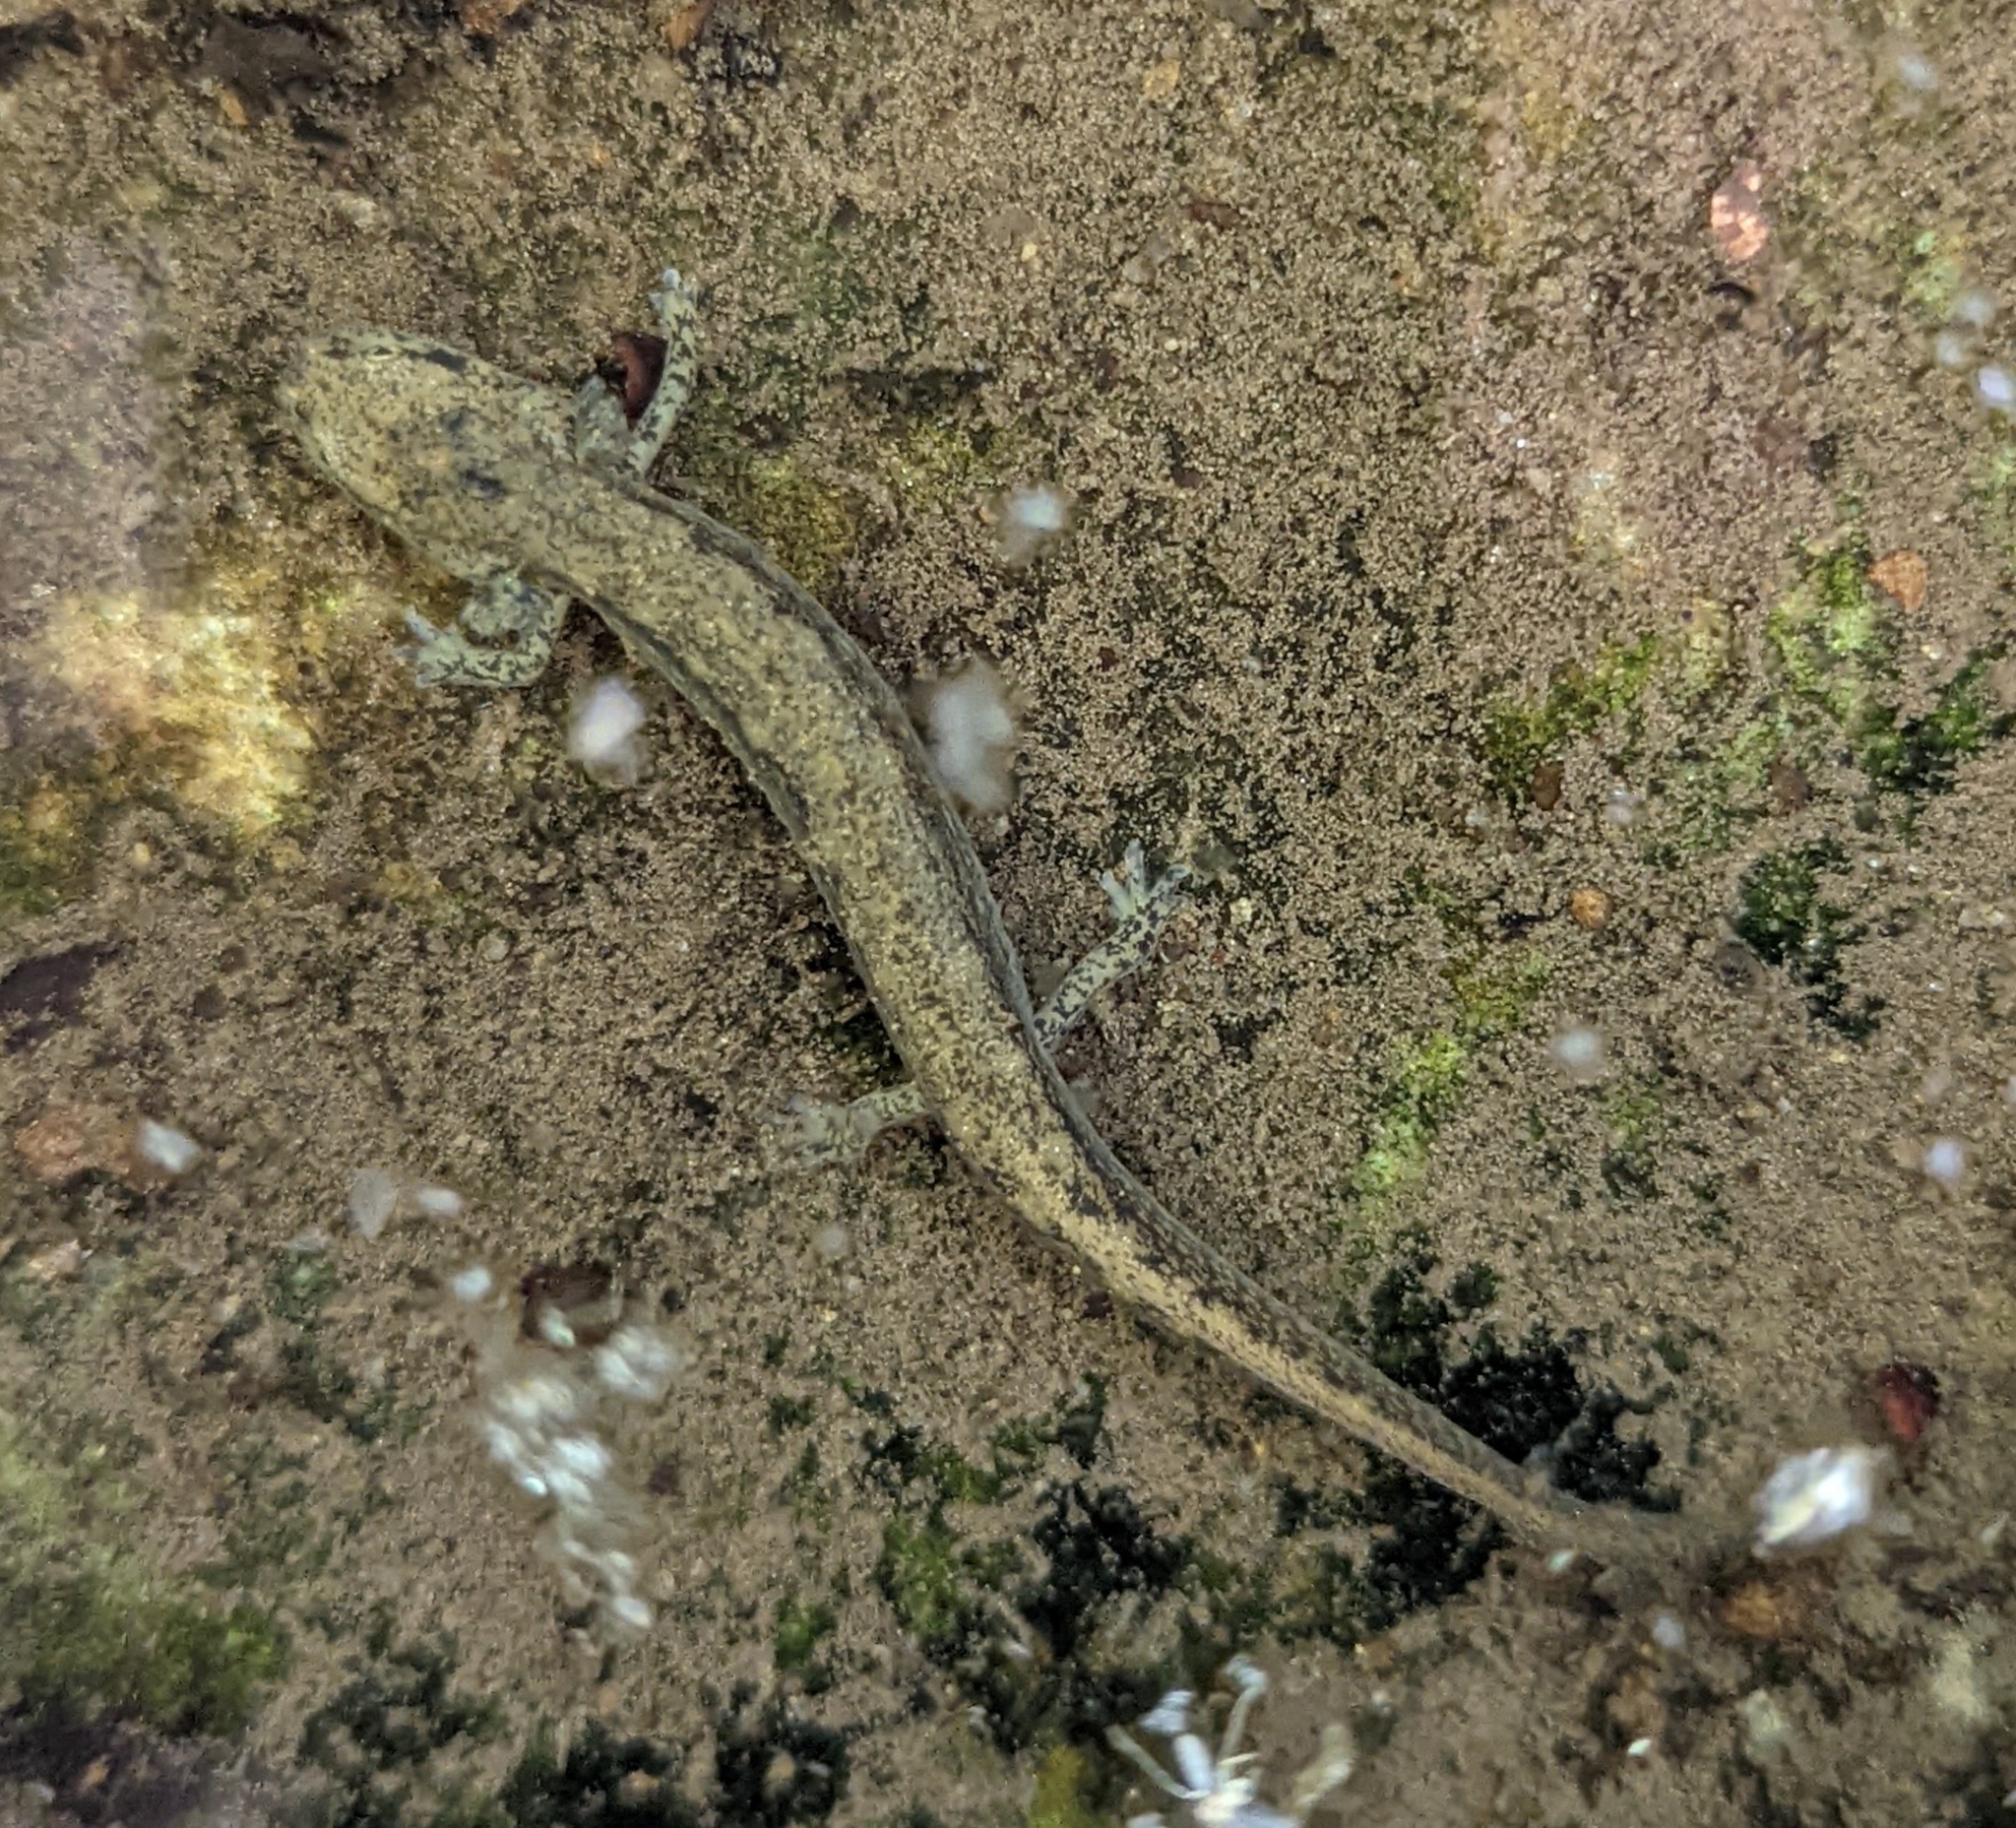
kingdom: Animalia
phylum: Chordata
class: Amphibia
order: Caudata
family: Plethodontidae
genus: Eurycea
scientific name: Eurycea bislineata
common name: Northern two-lined salamander
